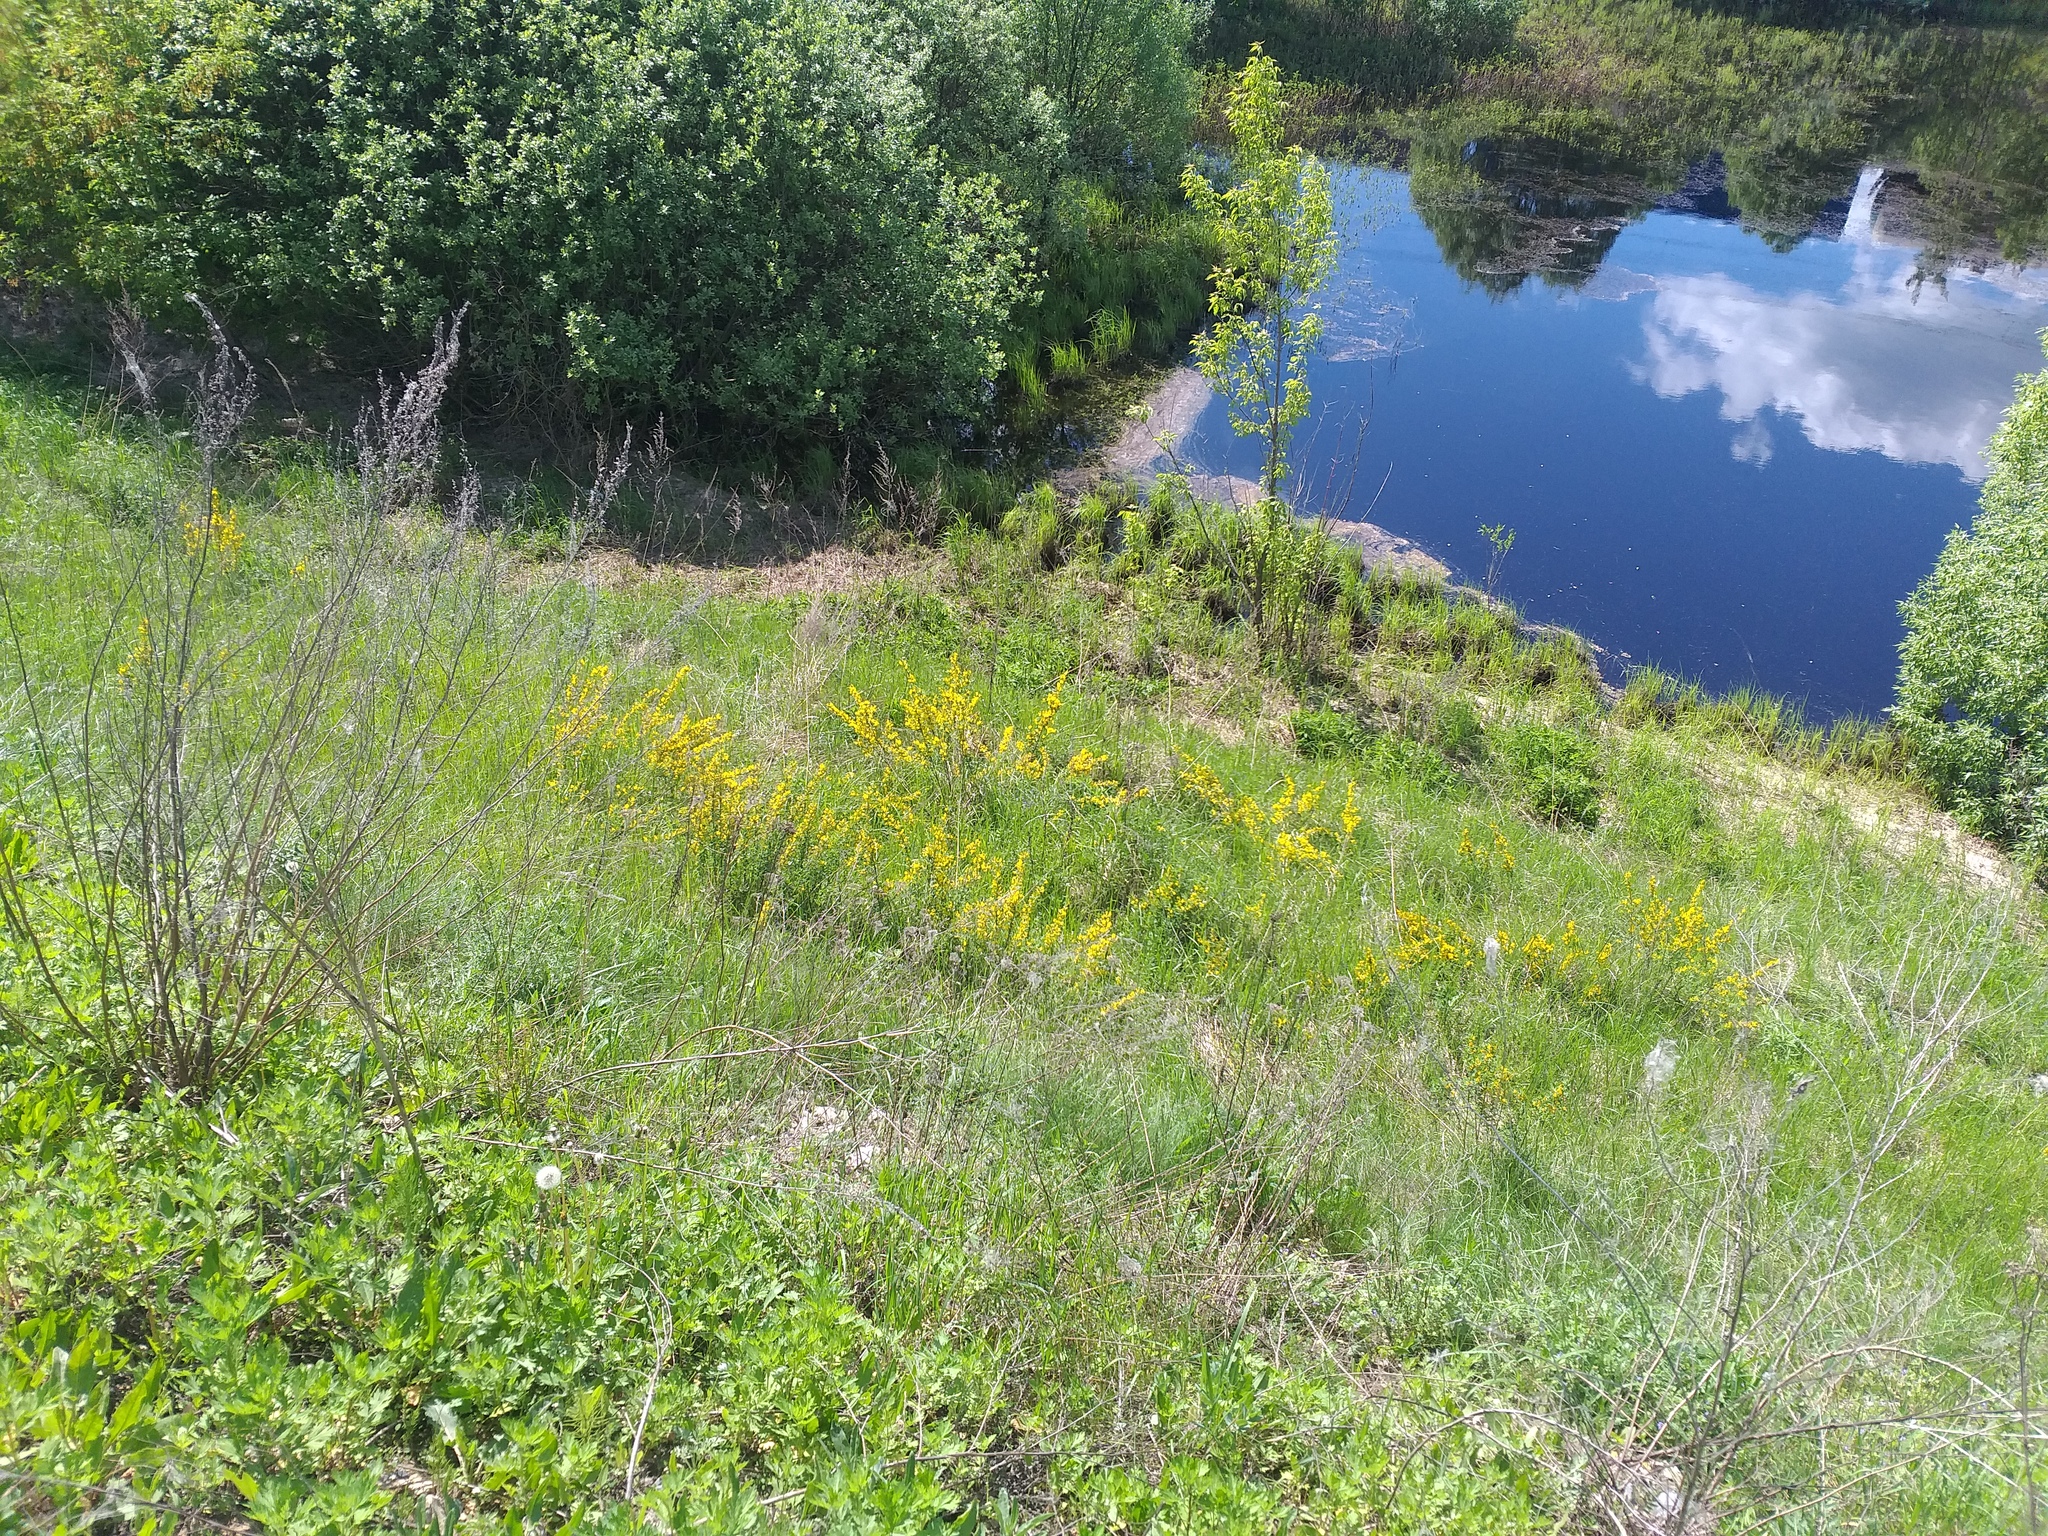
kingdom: Plantae
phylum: Tracheophyta
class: Magnoliopsida
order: Fabales
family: Fabaceae
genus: Chamaecytisus
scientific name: Chamaecytisus ruthenicus
